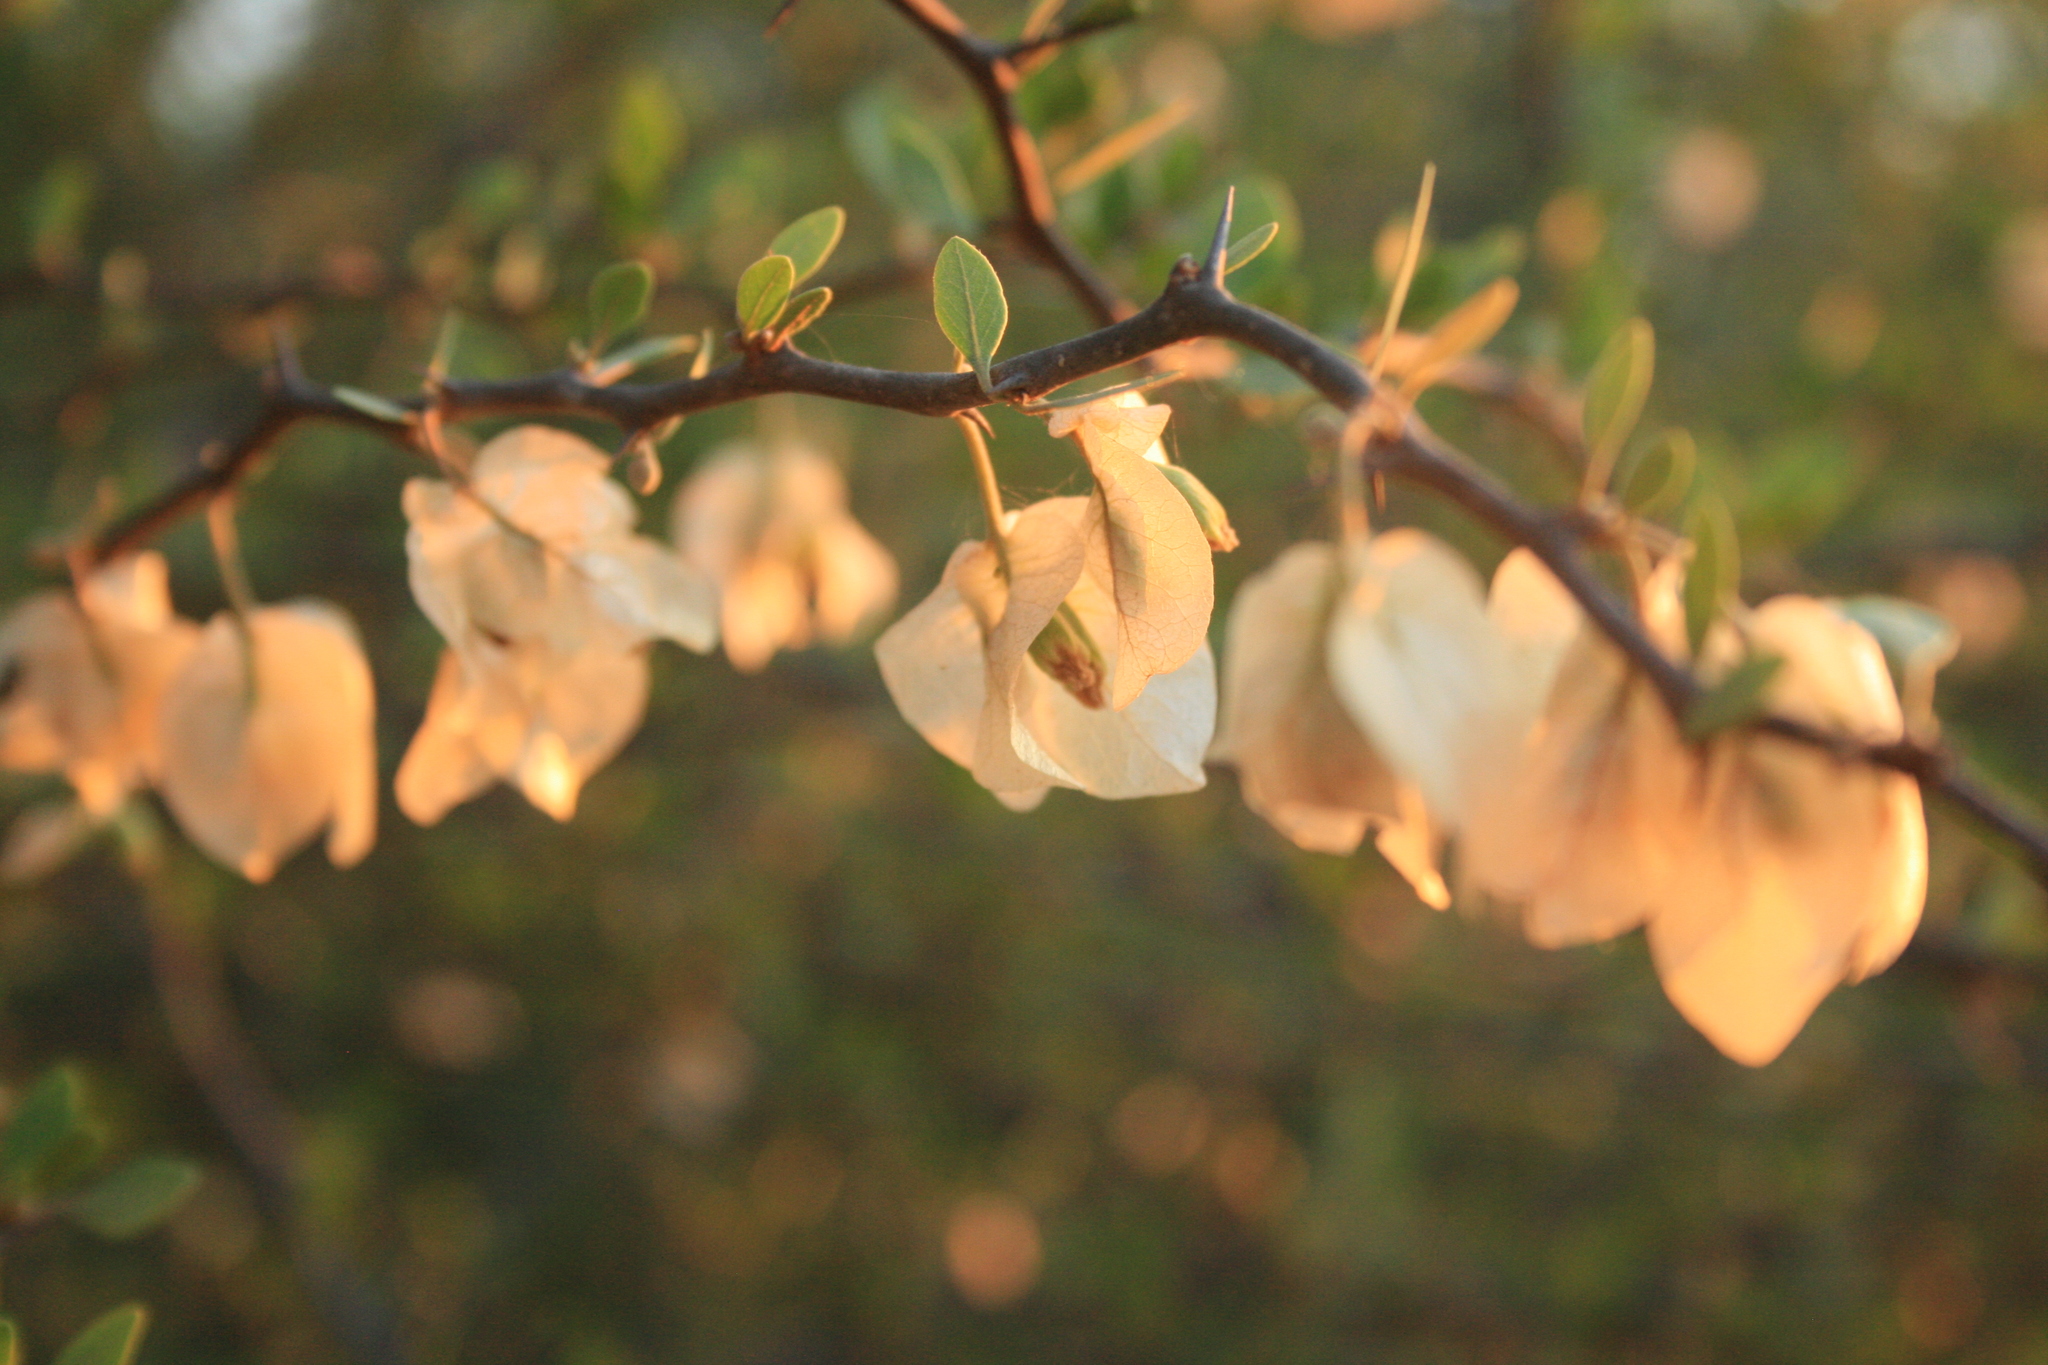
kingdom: Plantae
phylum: Tracheophyta
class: Magnoliopsida
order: Caryophyllales
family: Nyctaginaceae
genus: Bougainvillea
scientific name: Bougainvillea campanulata
